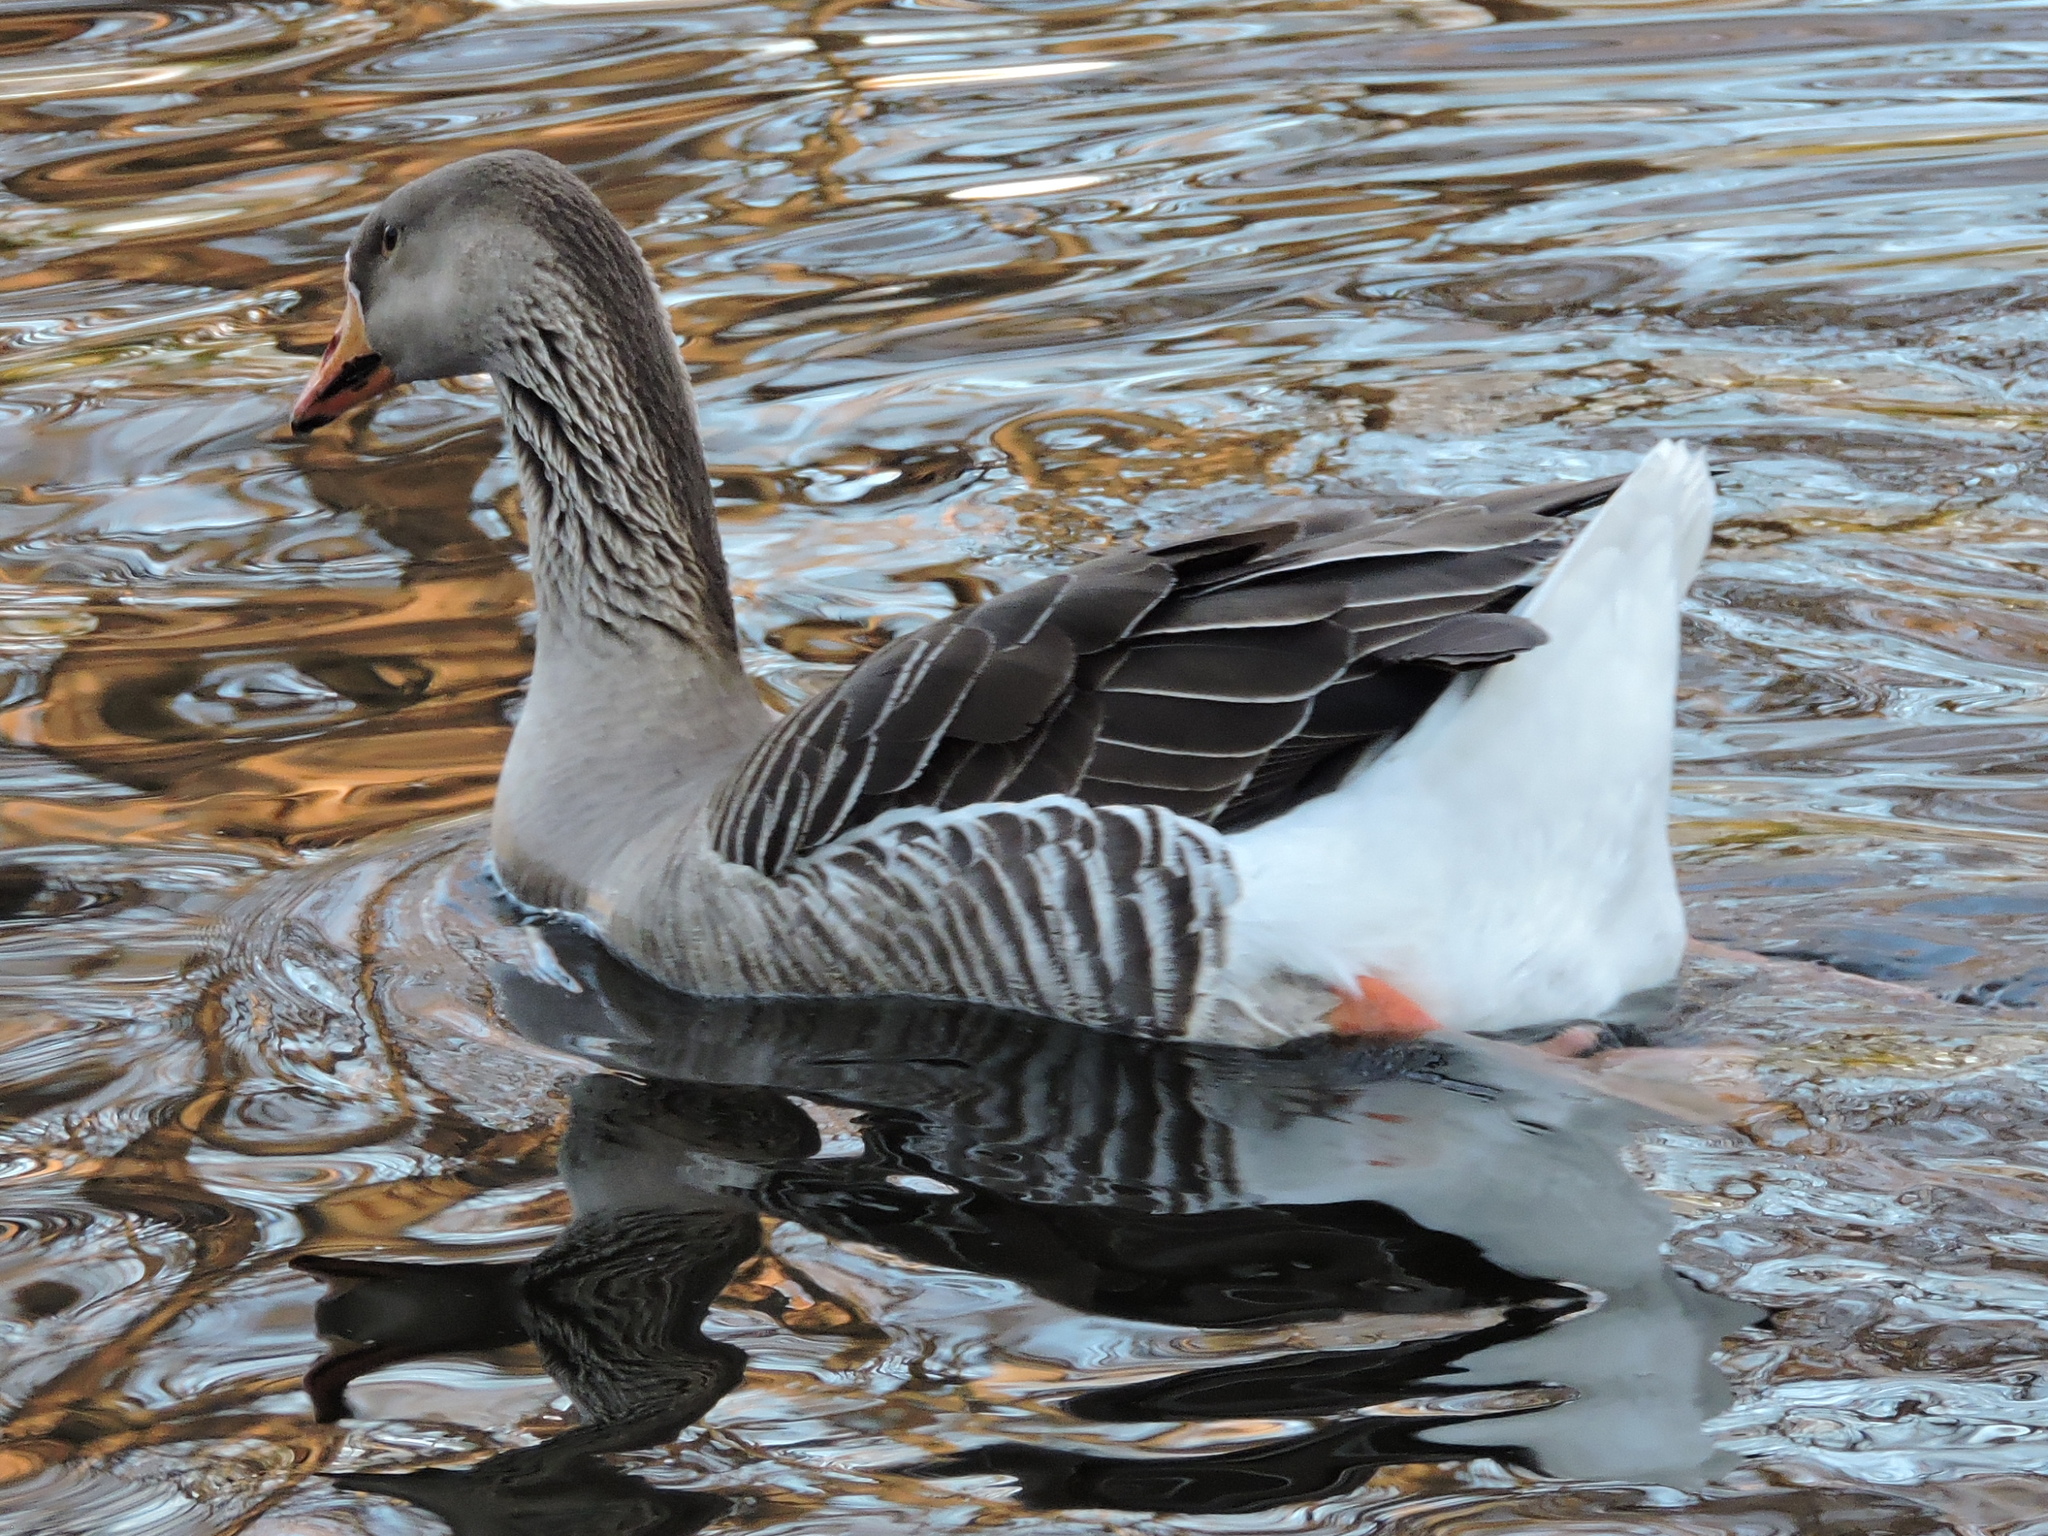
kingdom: Animalia
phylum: Chordata
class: Aves
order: Anseriformes
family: Anatidae
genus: Anser
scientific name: Anser
